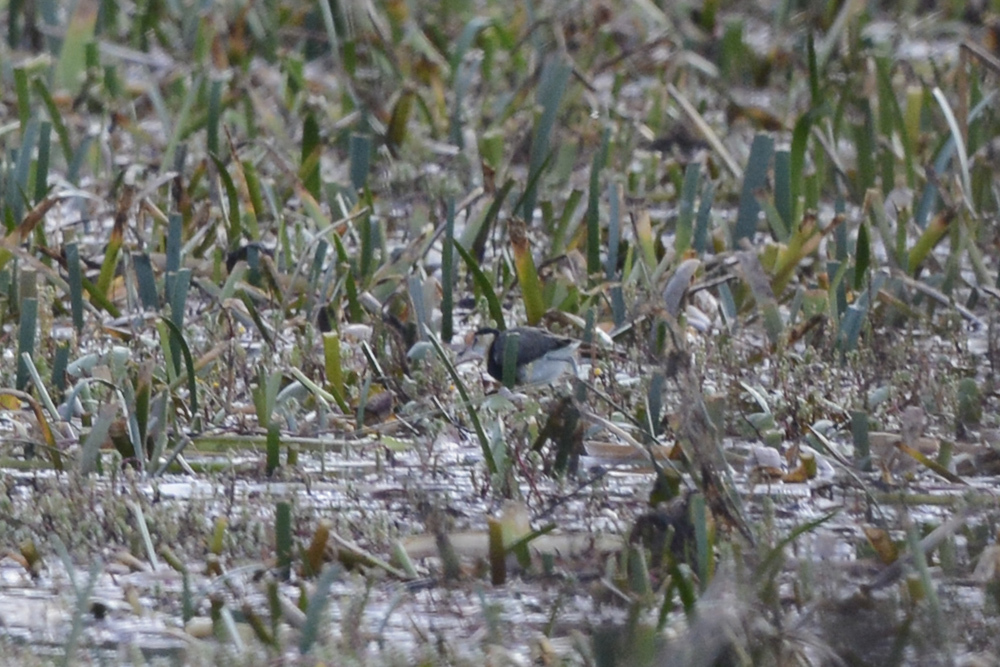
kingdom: Animalia
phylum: Chordata
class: Aves
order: Charadriiformes
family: Jacanidae
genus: Irediparra
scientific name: Irediparra gallinacea
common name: Comb-crested jacana
